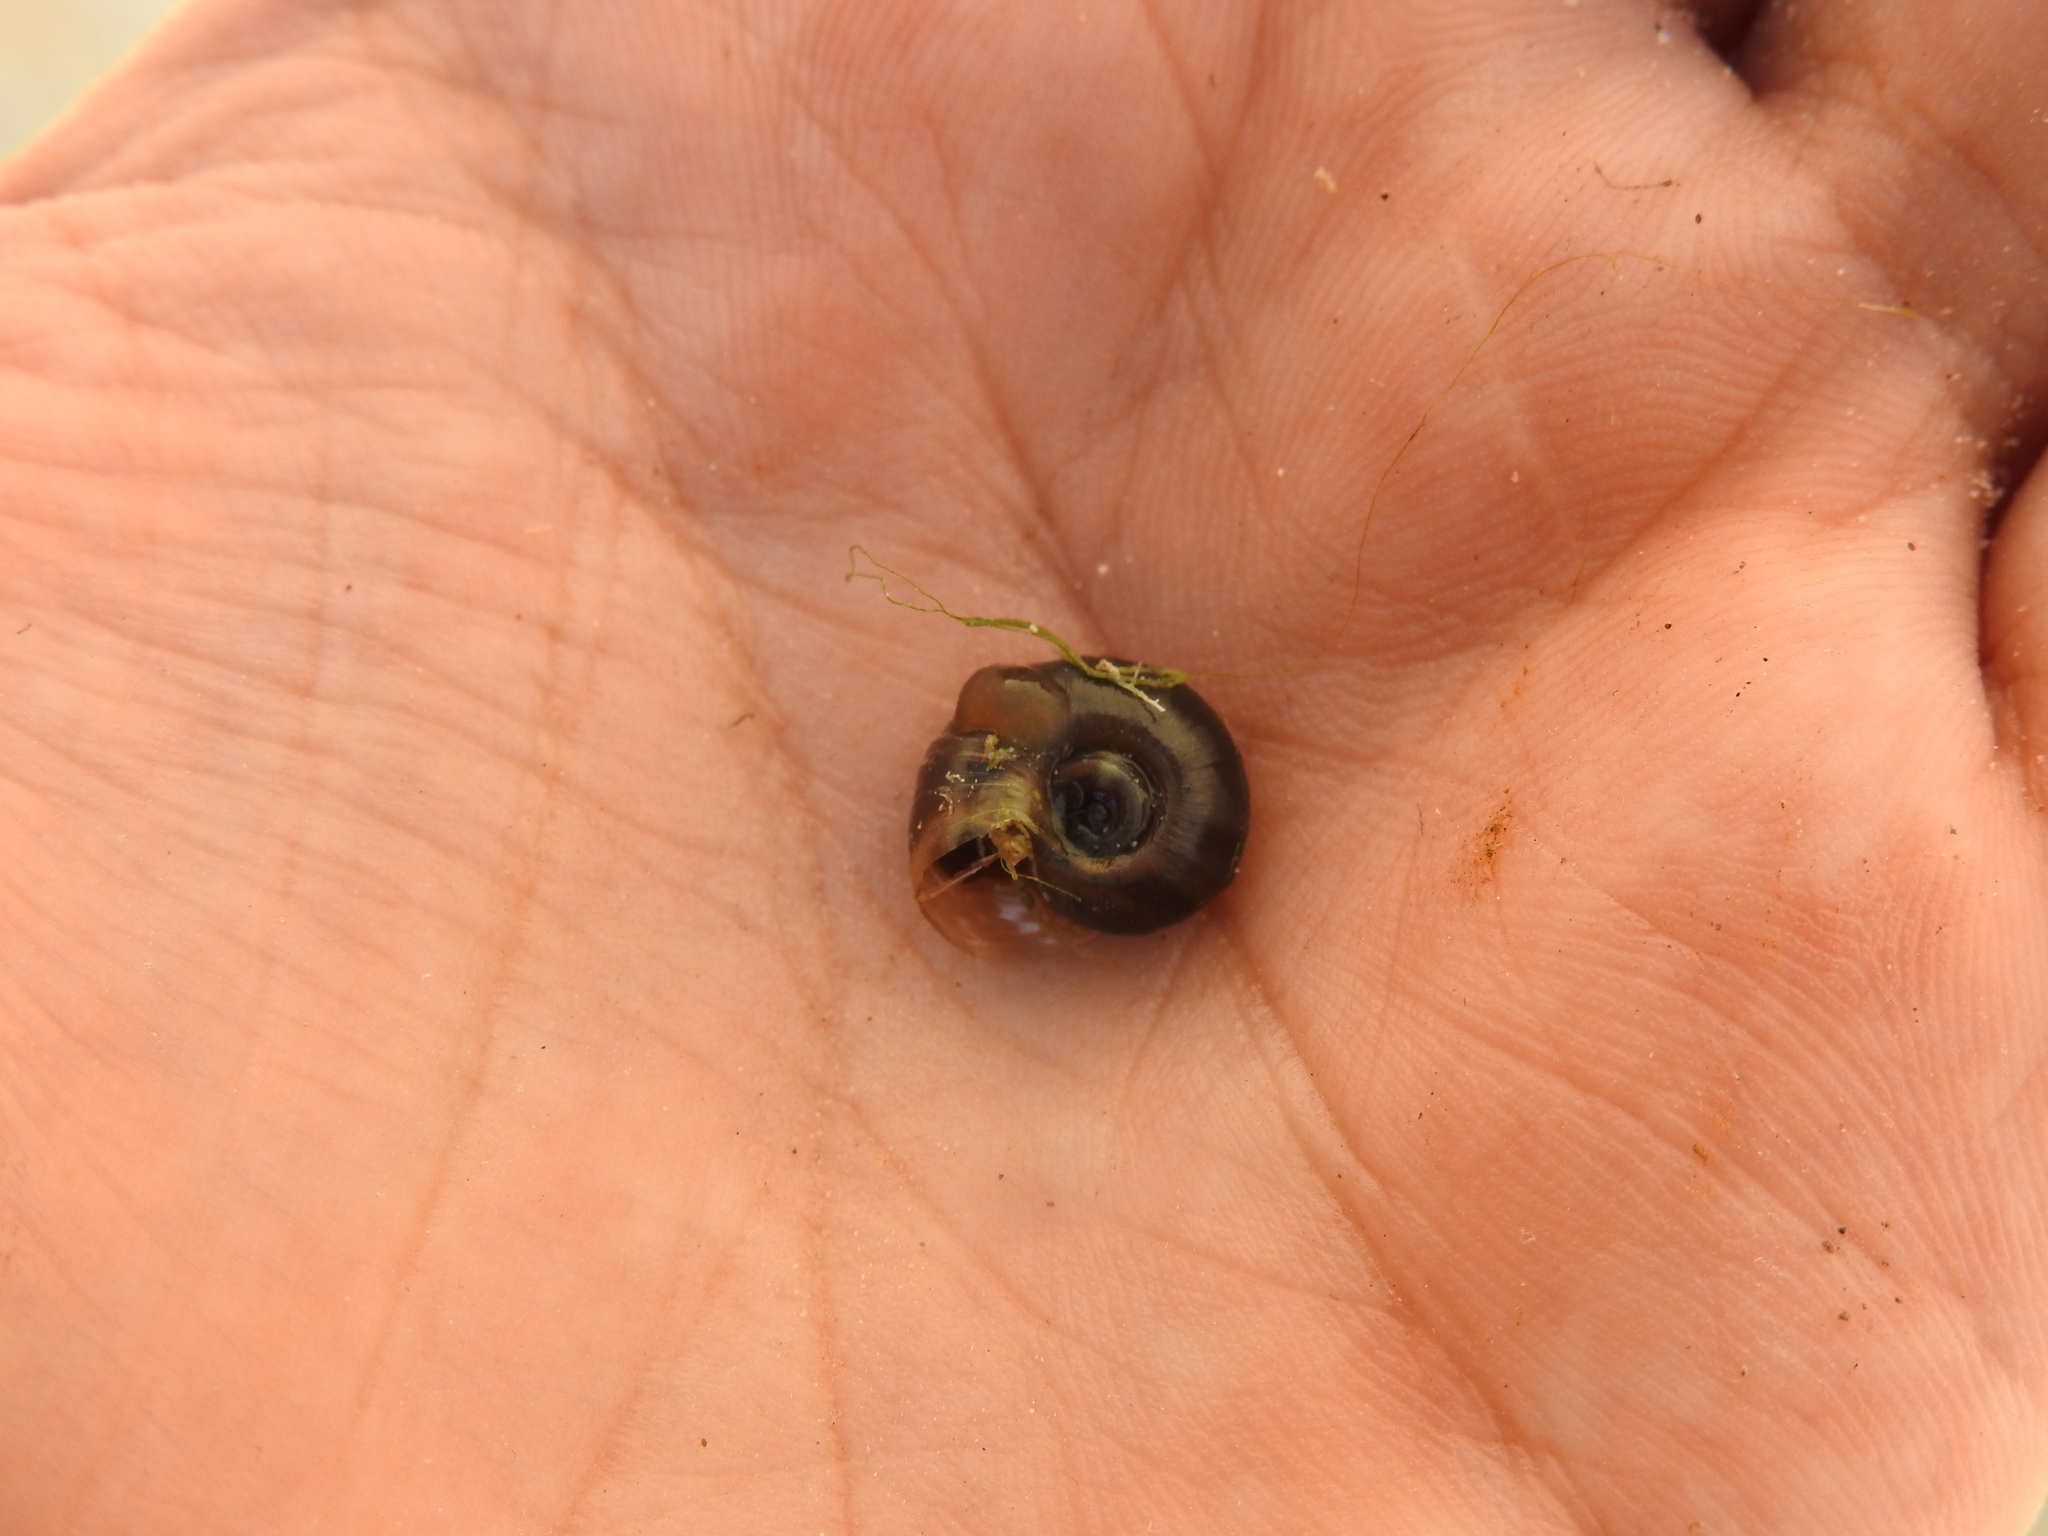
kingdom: Animalia
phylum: Mollusca
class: Gastropoda
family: Planorbidae
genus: Planorbella
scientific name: Planorbella duryi
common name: Seminole rams-horn
